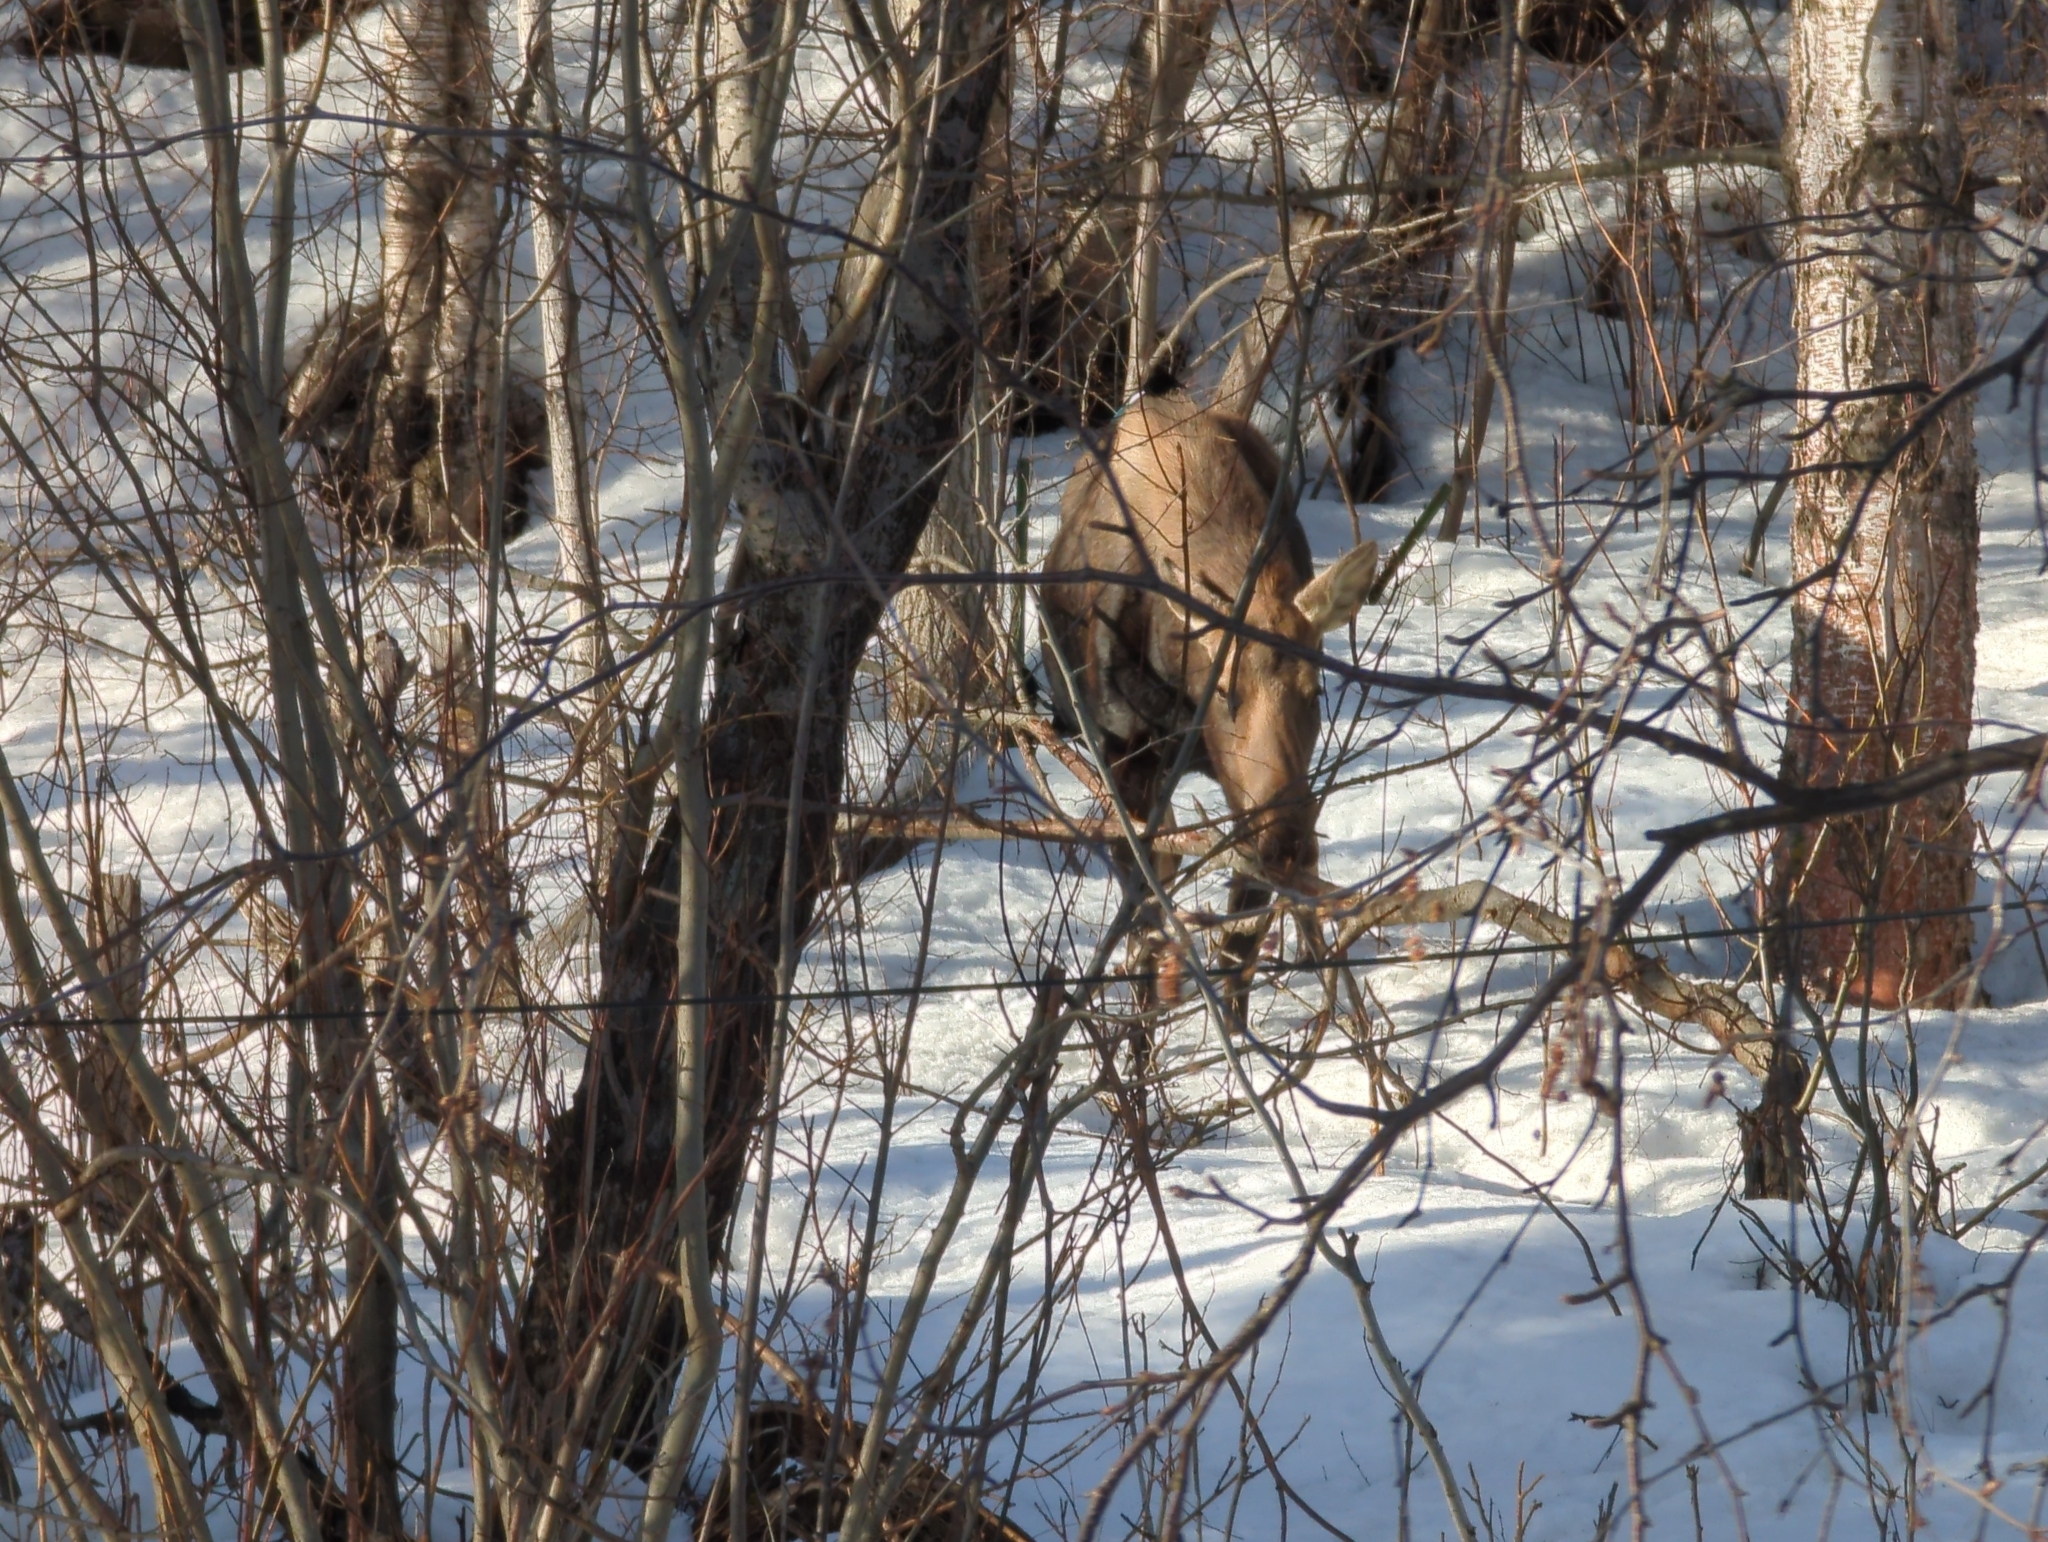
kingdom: Animalia
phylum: Chordata
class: Mammalia
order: Artiodactyla
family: Cervidae
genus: Alces
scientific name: Alces alces
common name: Moose
